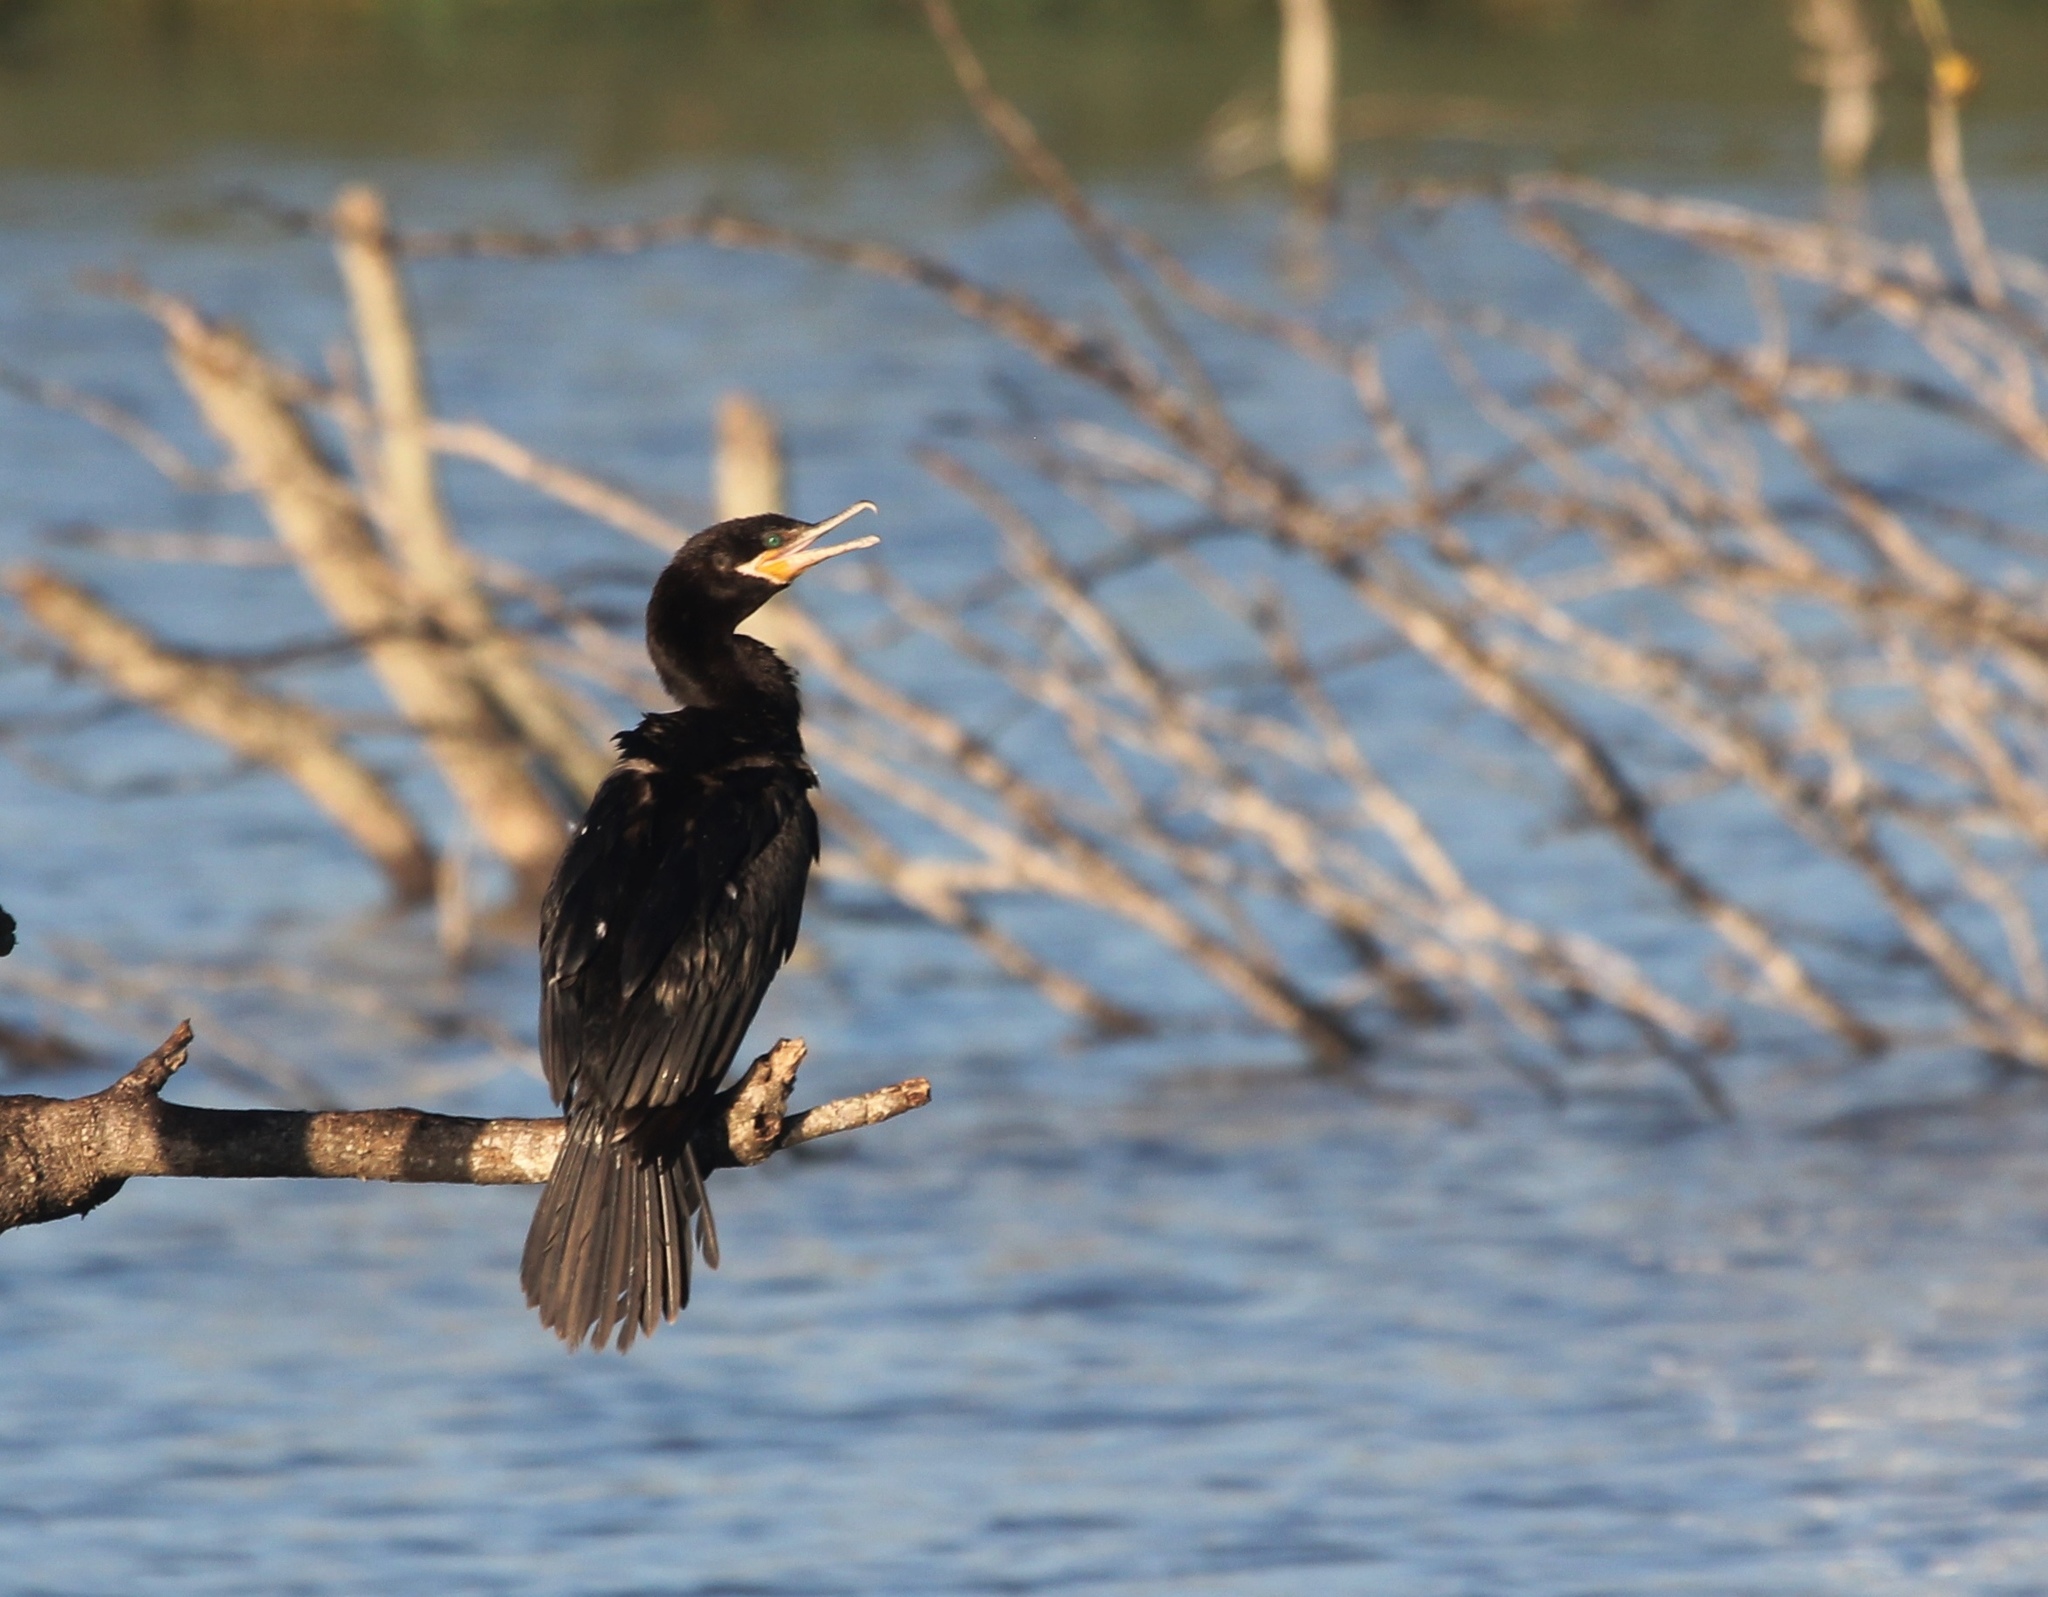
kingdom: Animalia
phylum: Chordata
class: Aves
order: Suliformes
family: Phalacrocoracidae
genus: Phalacrocorax
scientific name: Phalacrocorax brasilianus
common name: Neotropic cormorant
